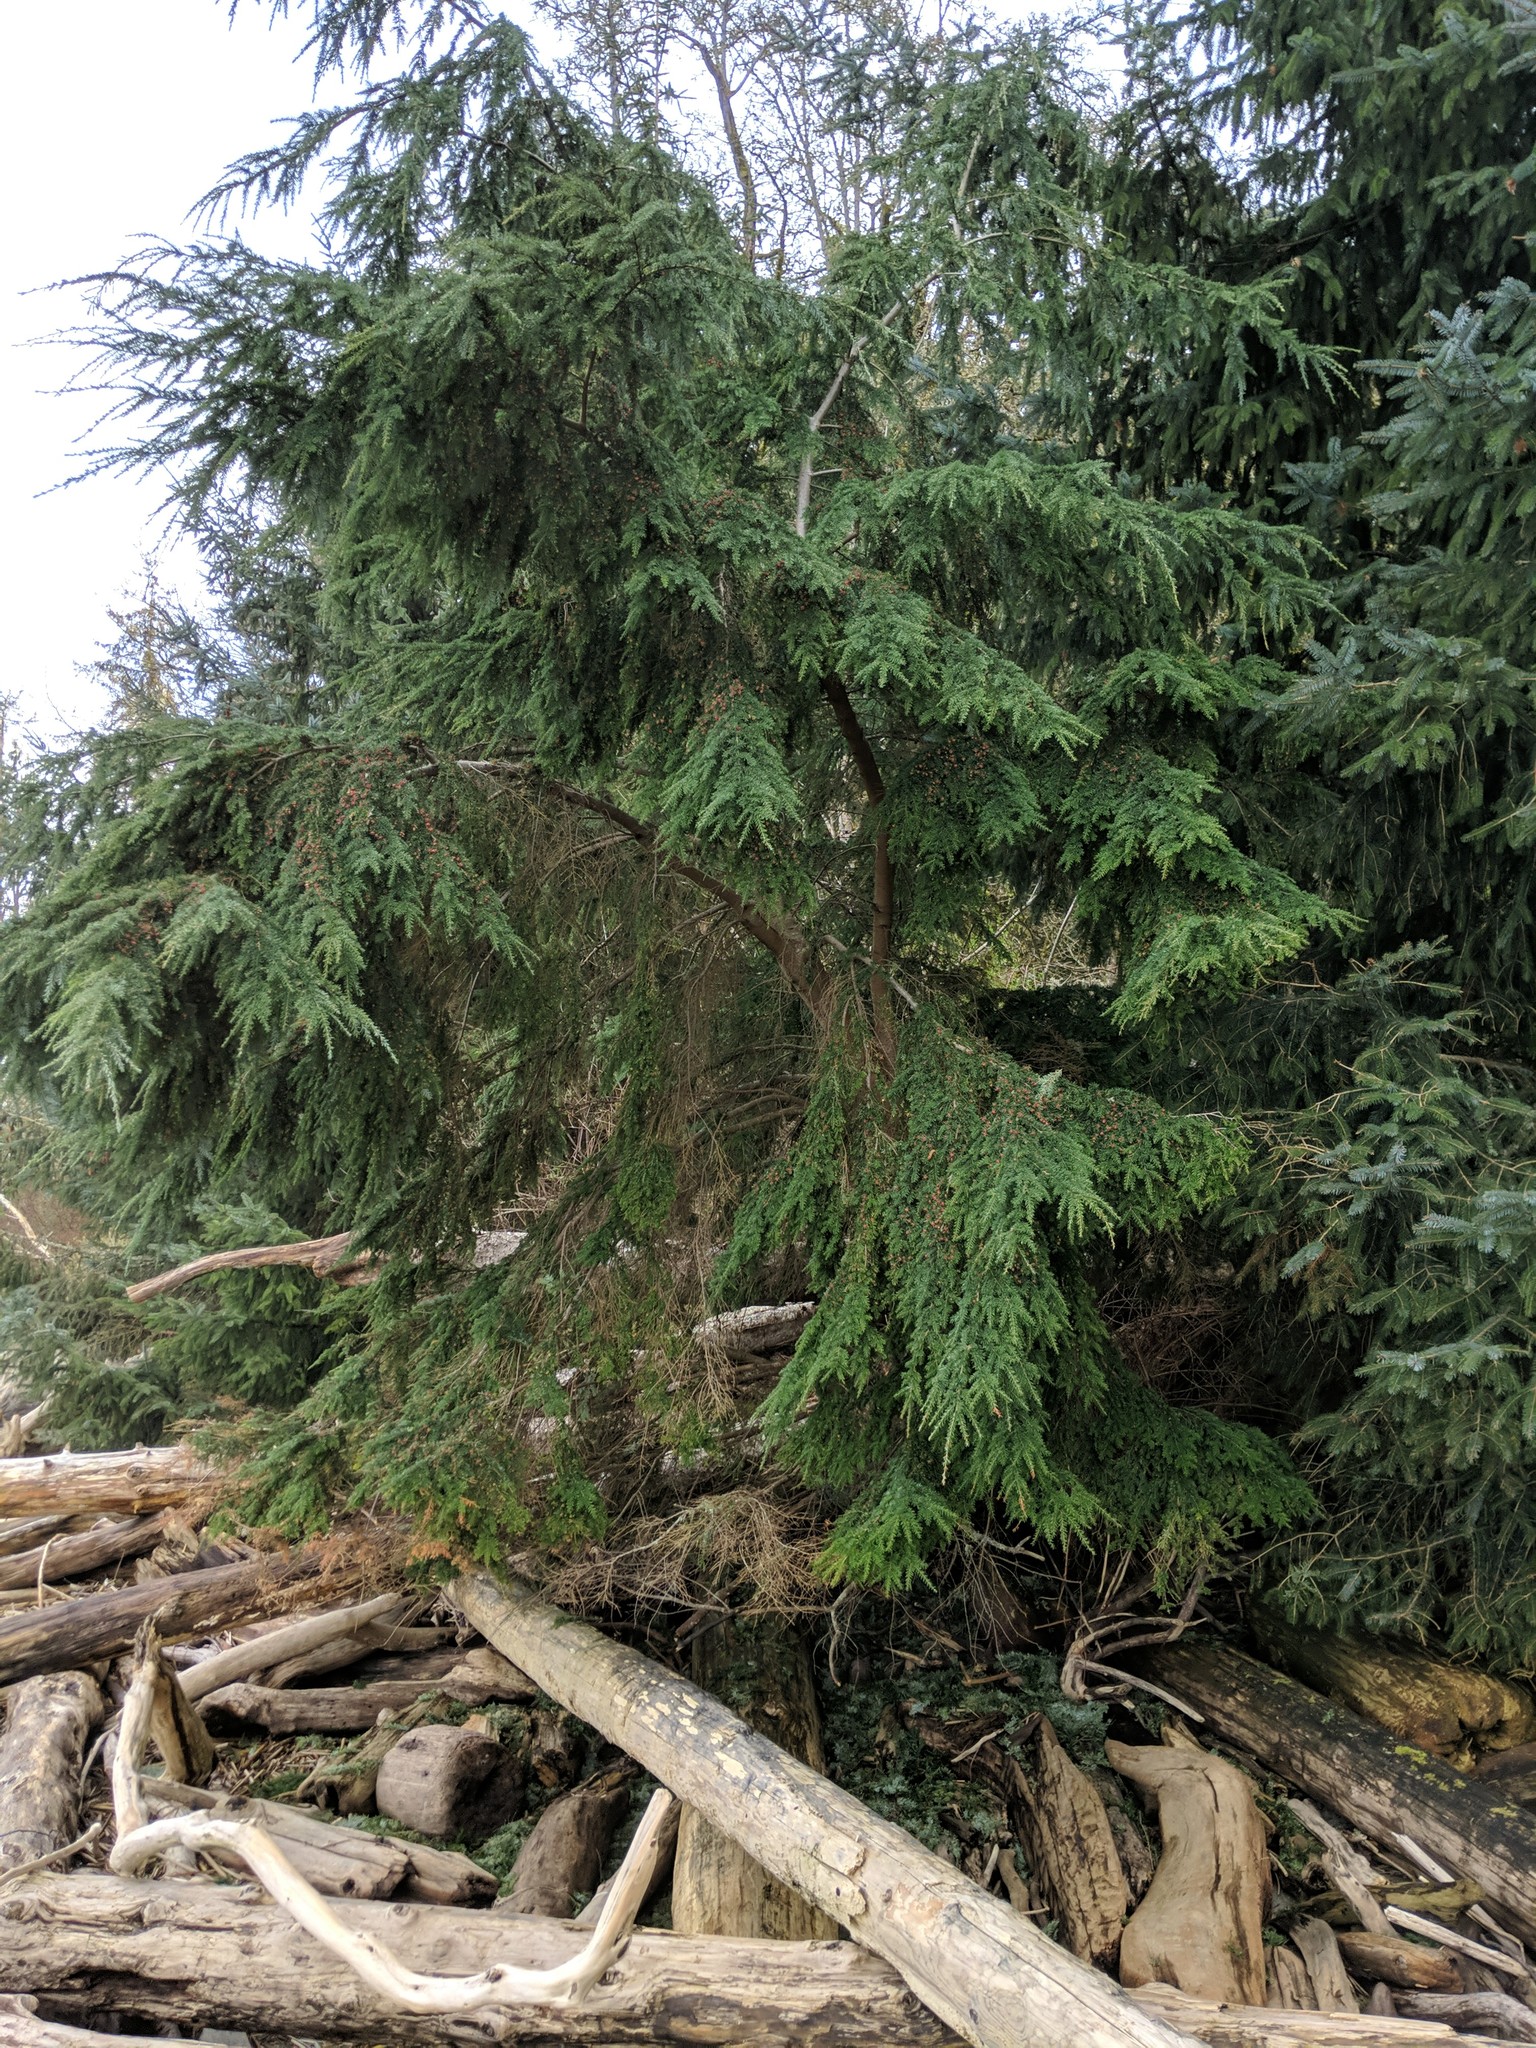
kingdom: Plantae
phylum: Tracheophyta
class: Pinopsida
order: Pinales
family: Pinaceae
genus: Tsuga
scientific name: Tsuga heterophylla
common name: Western hemlock
